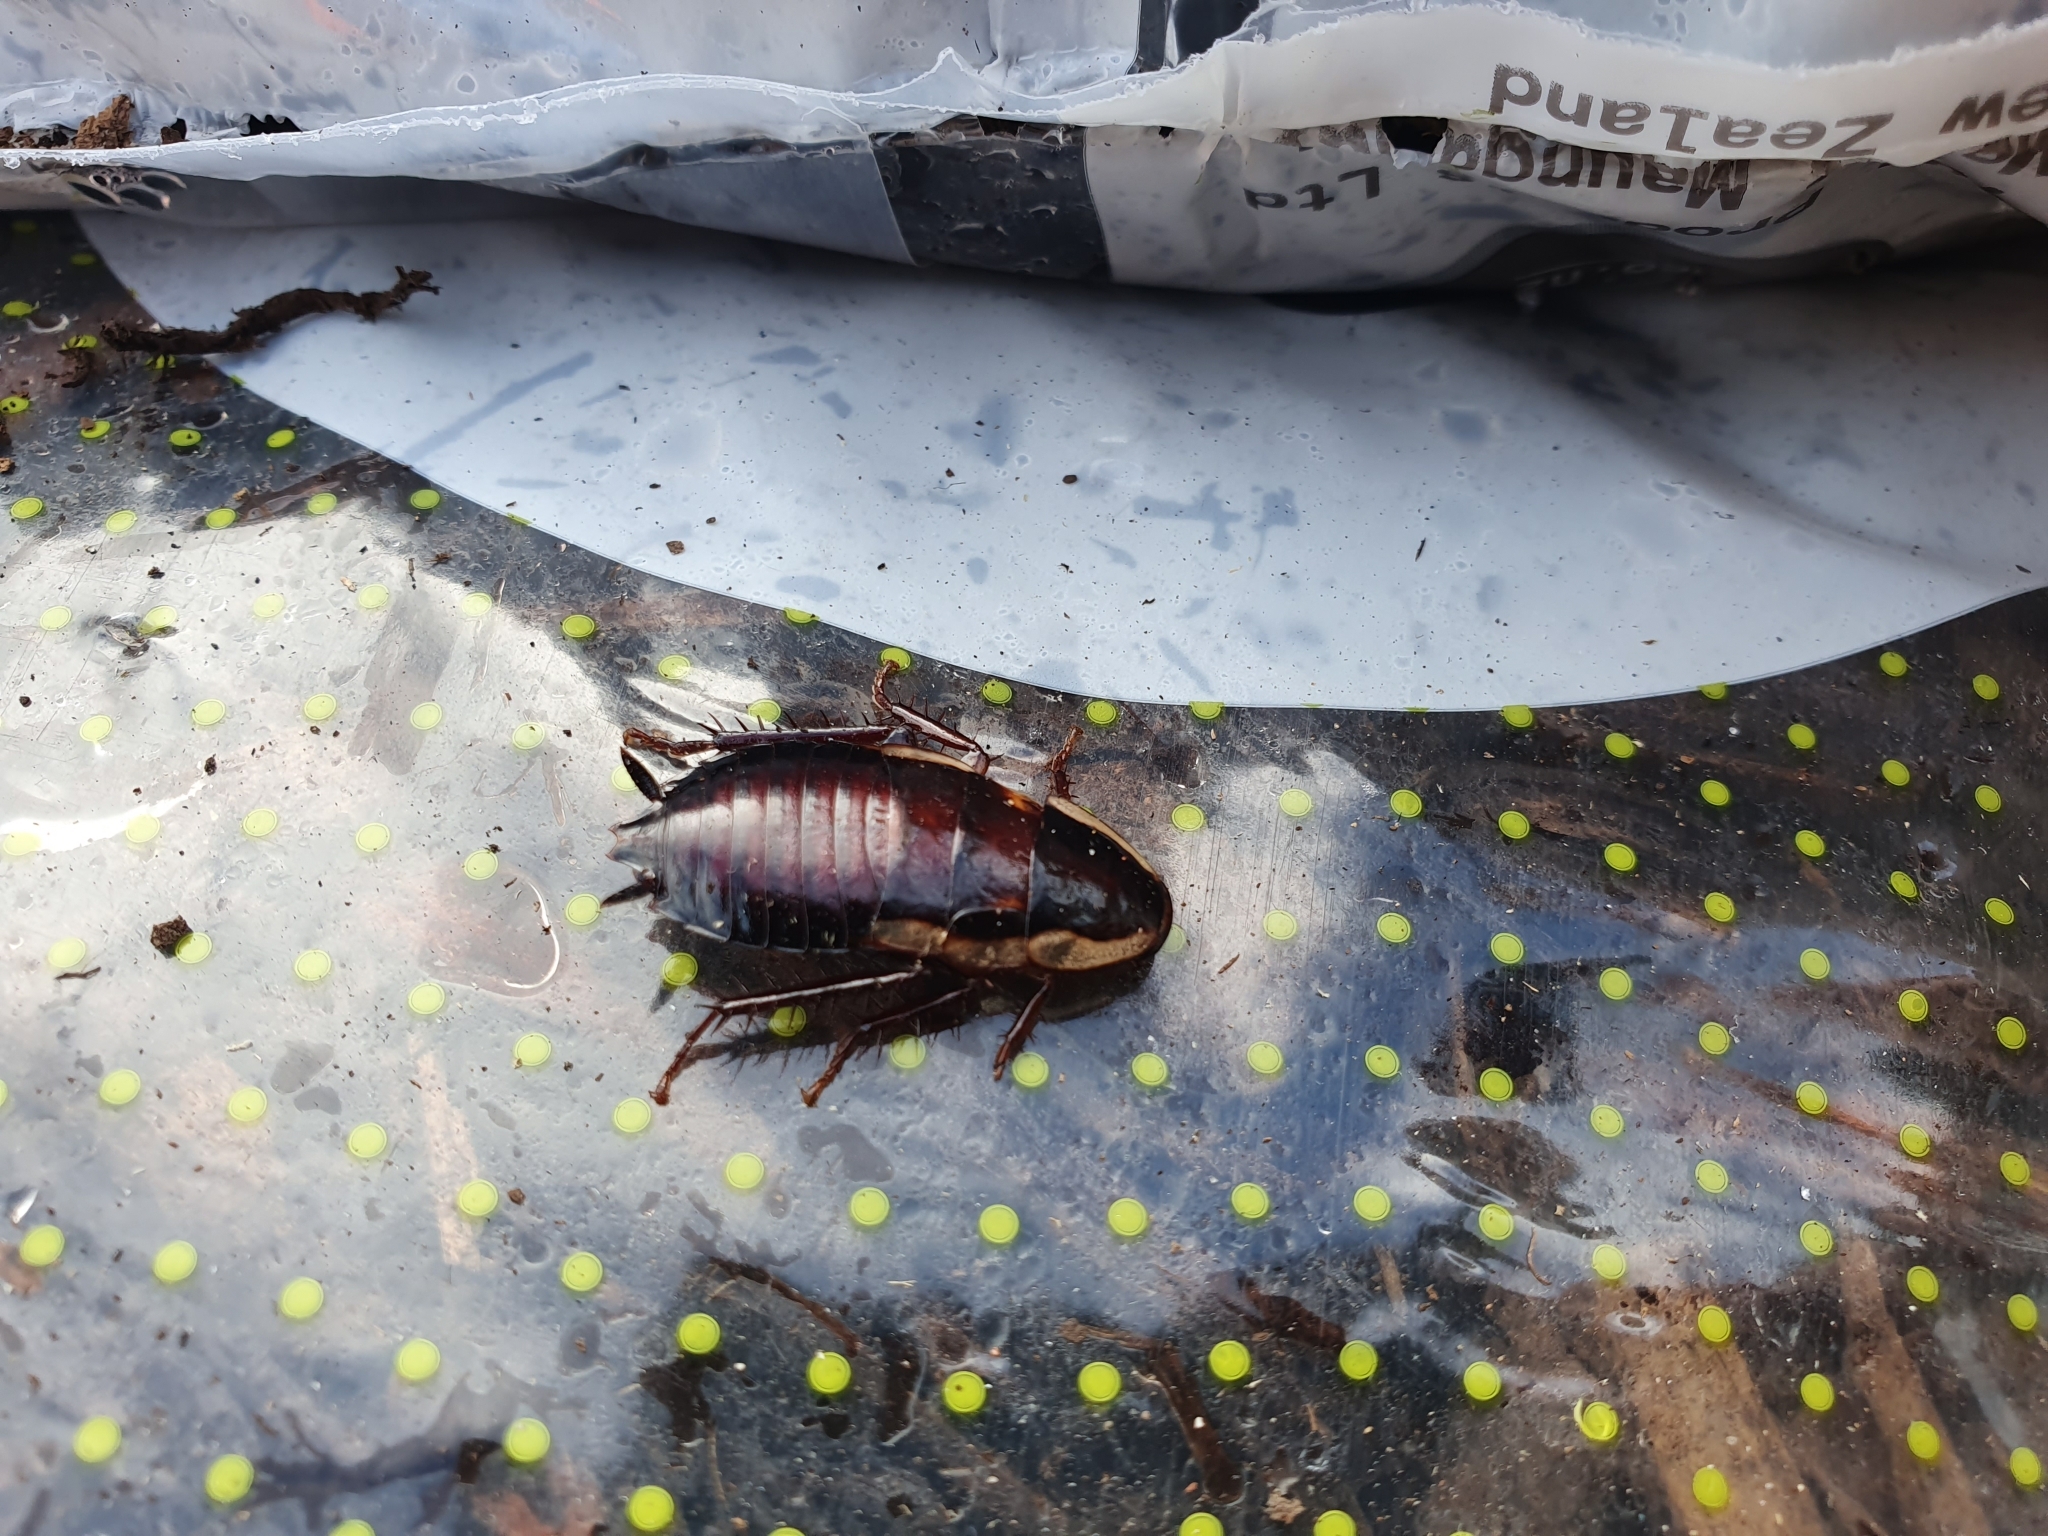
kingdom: Animalia
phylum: Arthropoda
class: Insecta
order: Blattodea
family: Blattidae
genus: Drymaplaneta
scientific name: Drymaplaneta semivitta
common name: Gisborne cockroach
